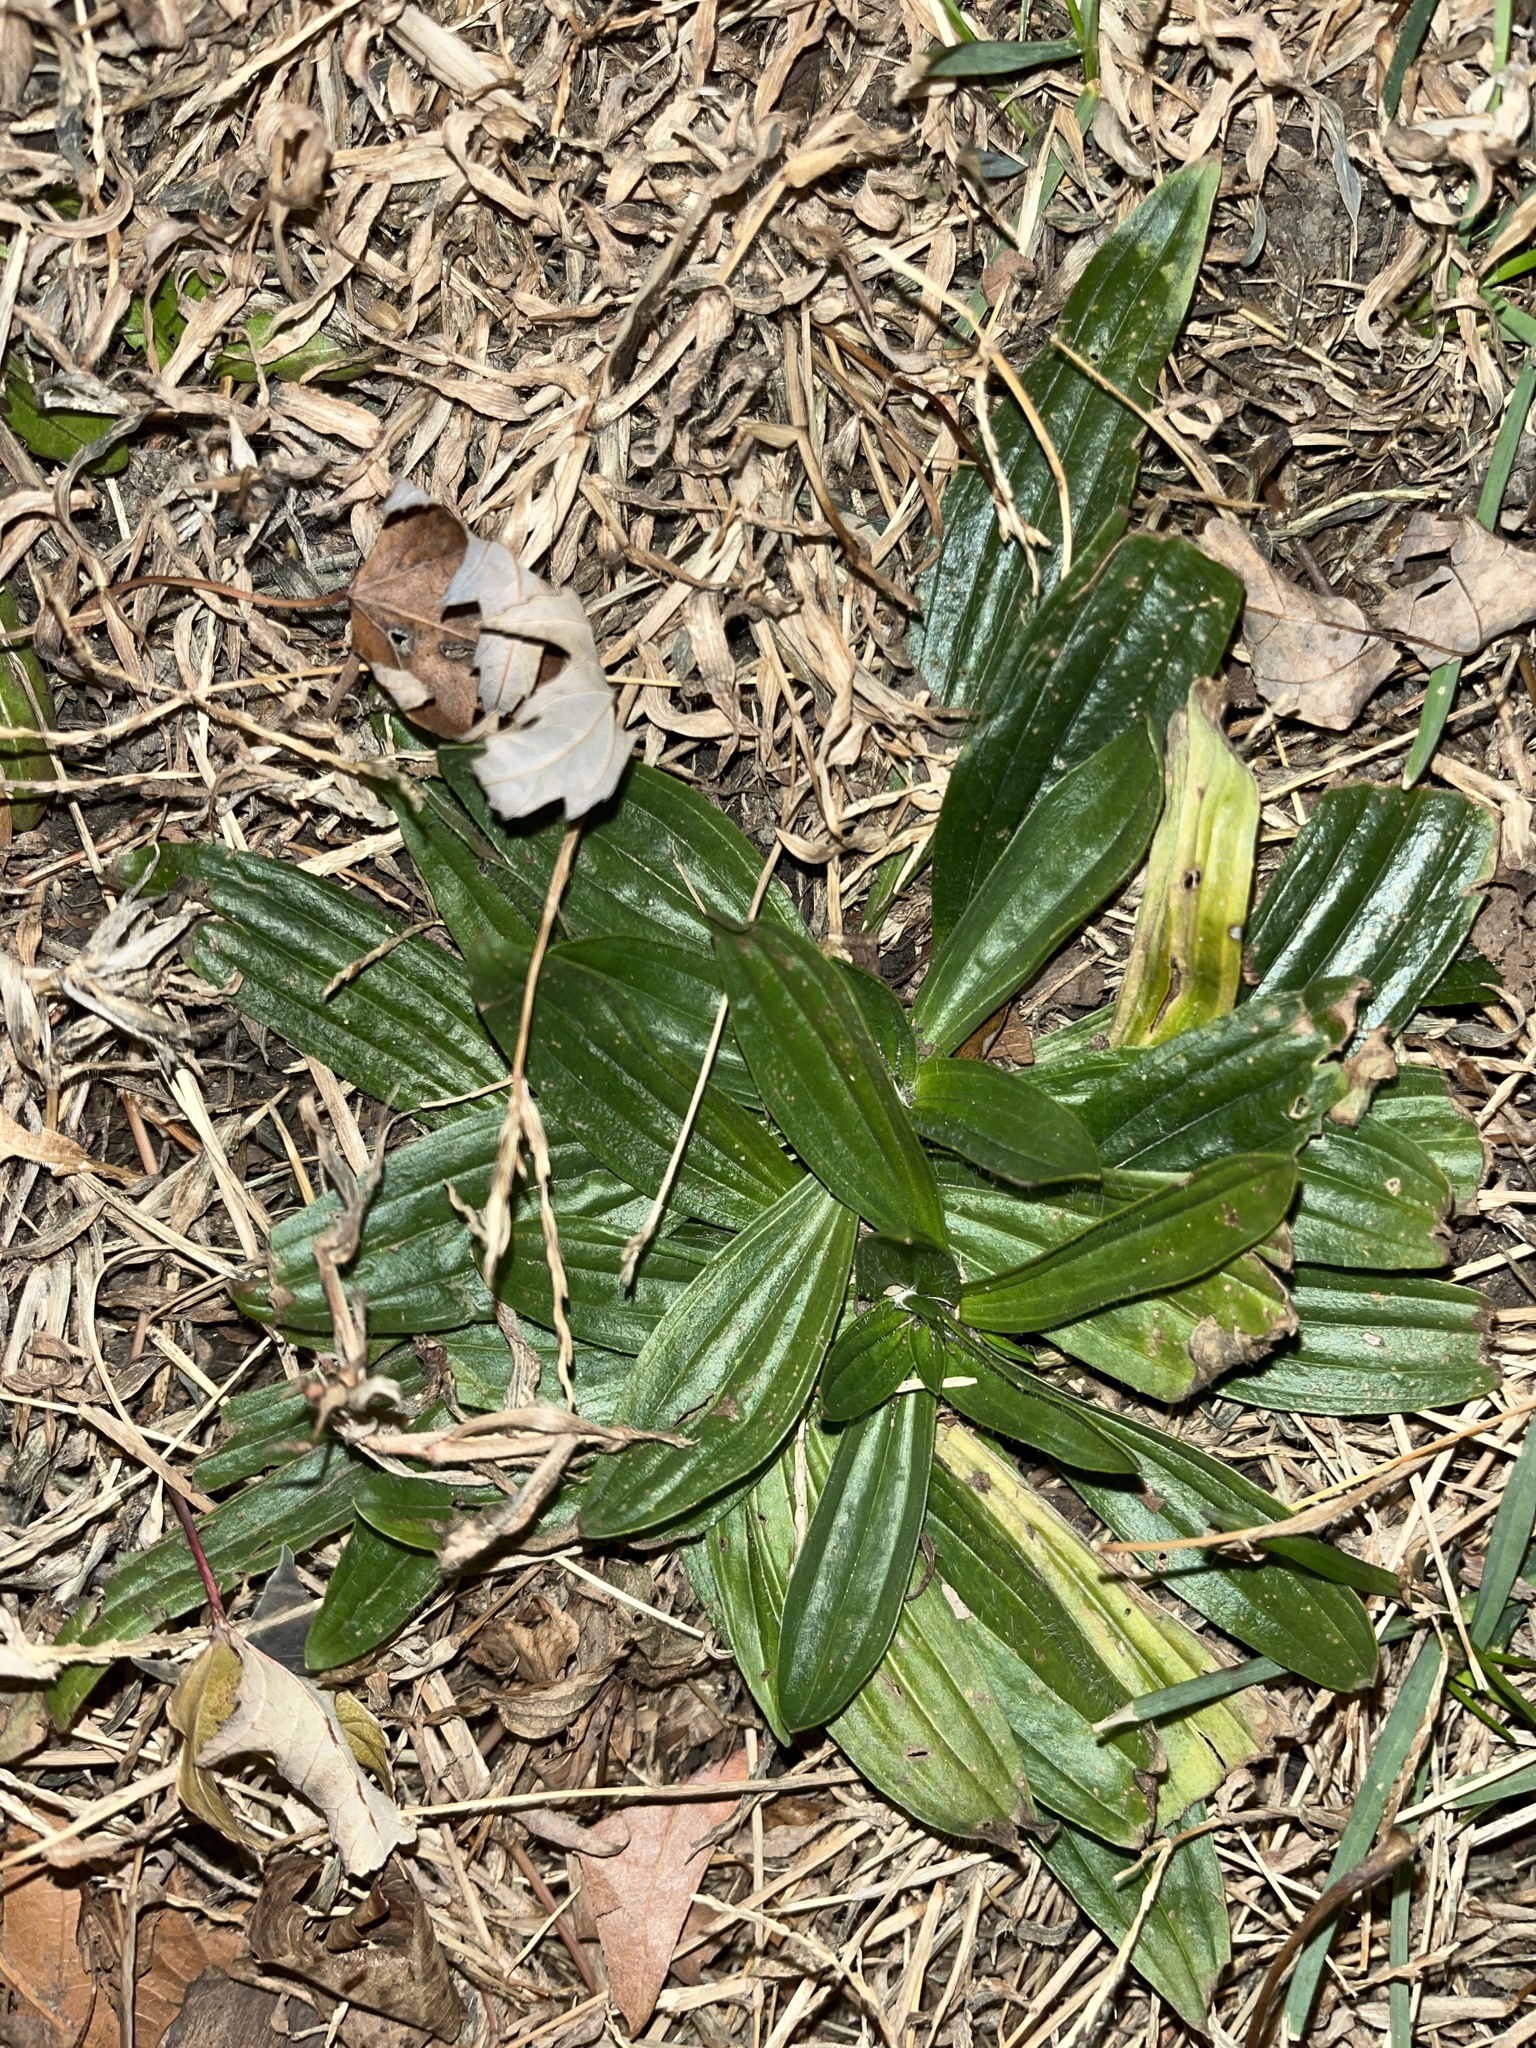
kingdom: Plantae
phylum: Tracheophyta
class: Magnoliopsida
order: Lamiales
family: Plantaginaceae
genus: Plantago
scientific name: Plantago lanceolata
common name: Ribwort plantain
